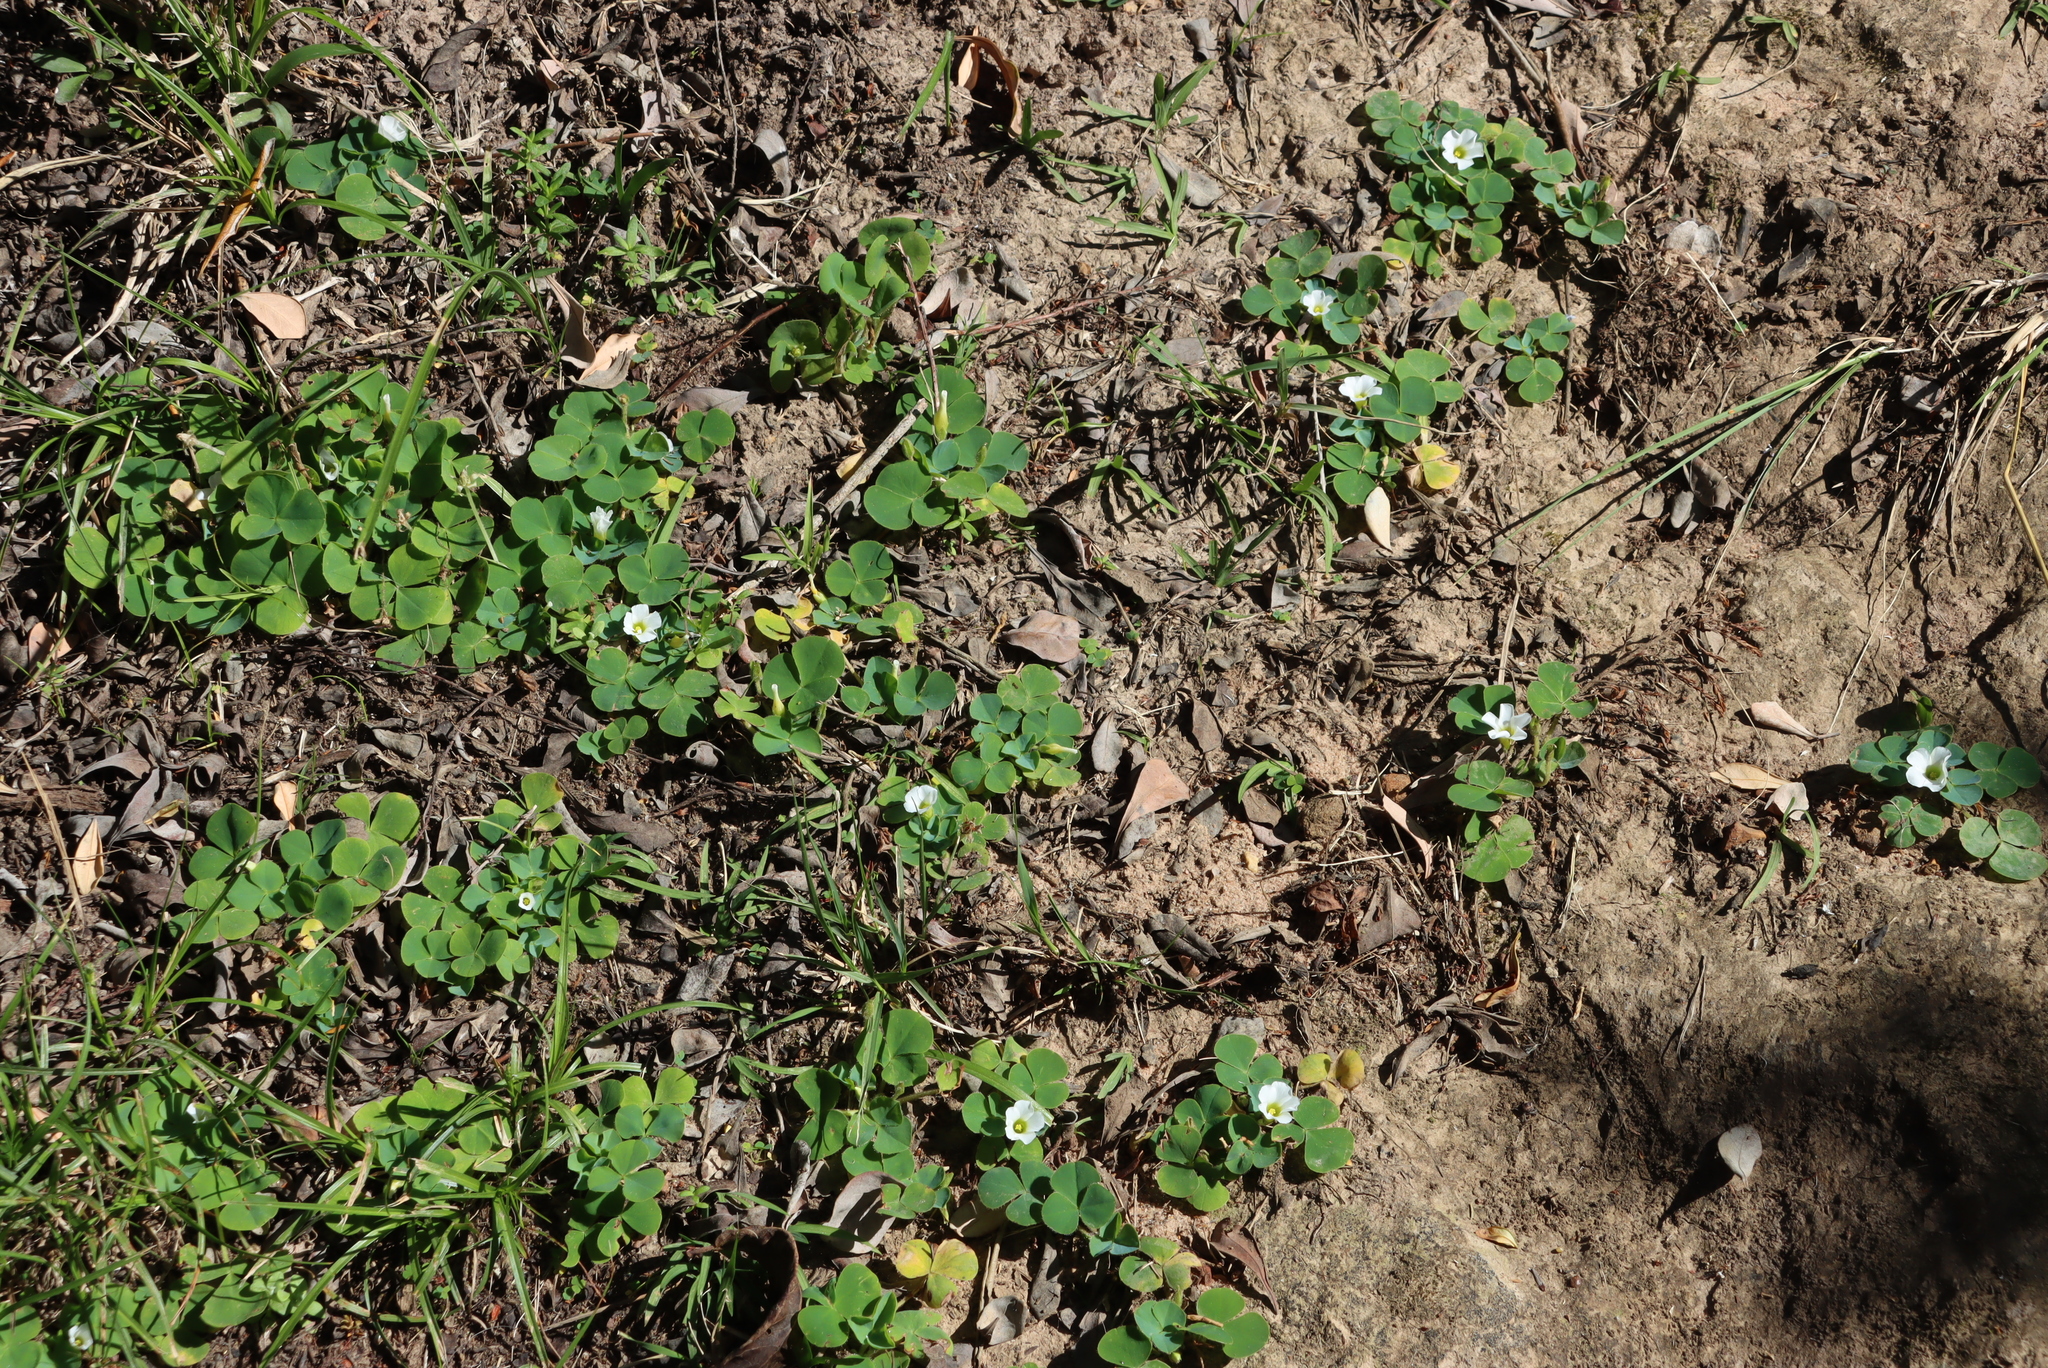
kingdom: Plantae
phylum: Tracheophyta
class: Magnoliopsida
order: Oxalidales
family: Oxalidaceae
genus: Oxalis
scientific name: Oxalis purpurea
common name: Purple woodsorrel
